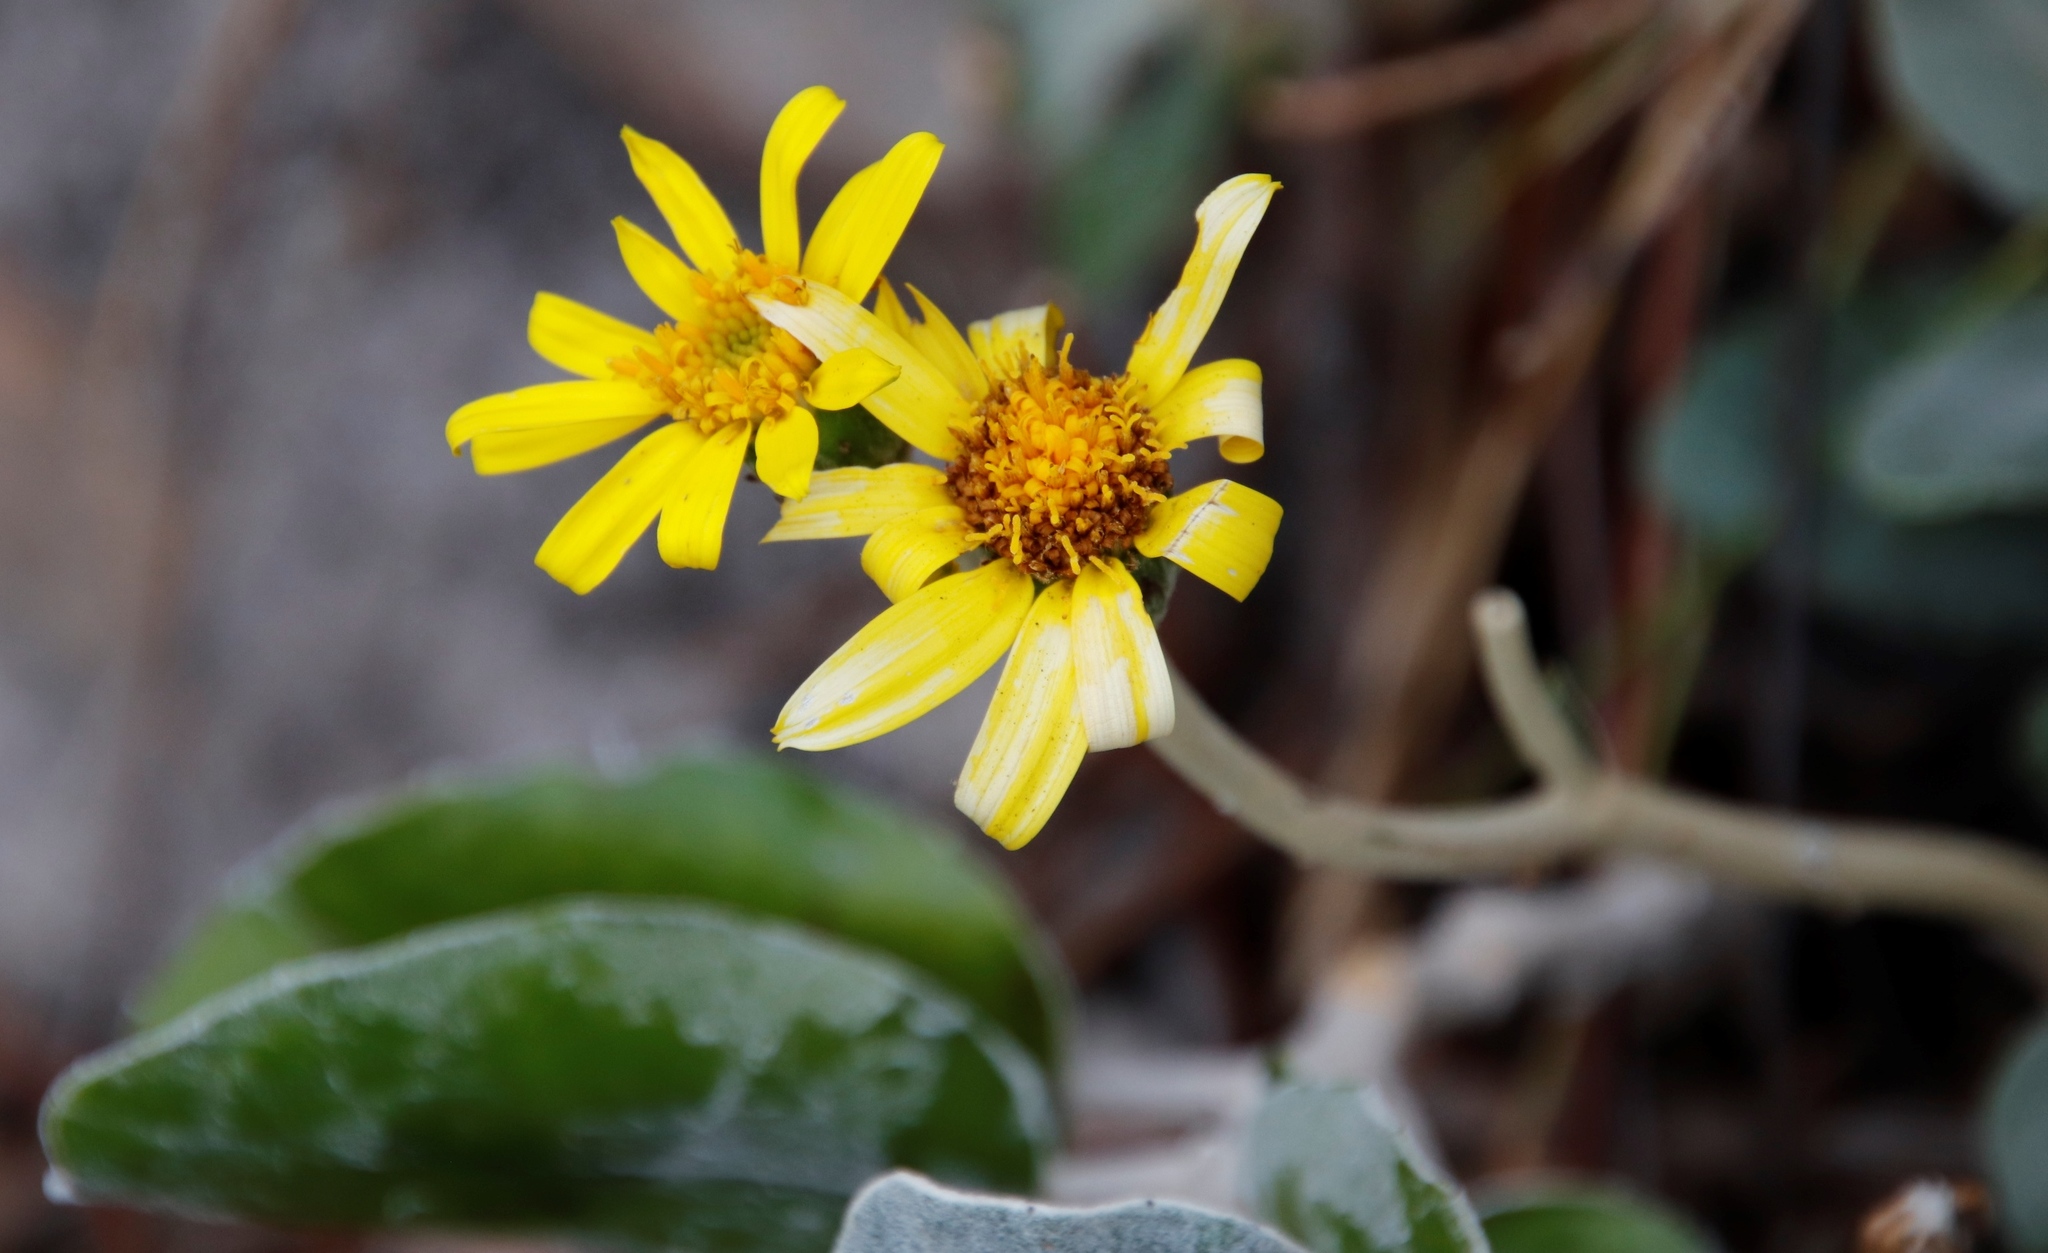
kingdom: Plantae
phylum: Tracheophyta
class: Magnoliopsida
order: Asterales
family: Asteraceae
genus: Capelio
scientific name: Capelio tabularis
